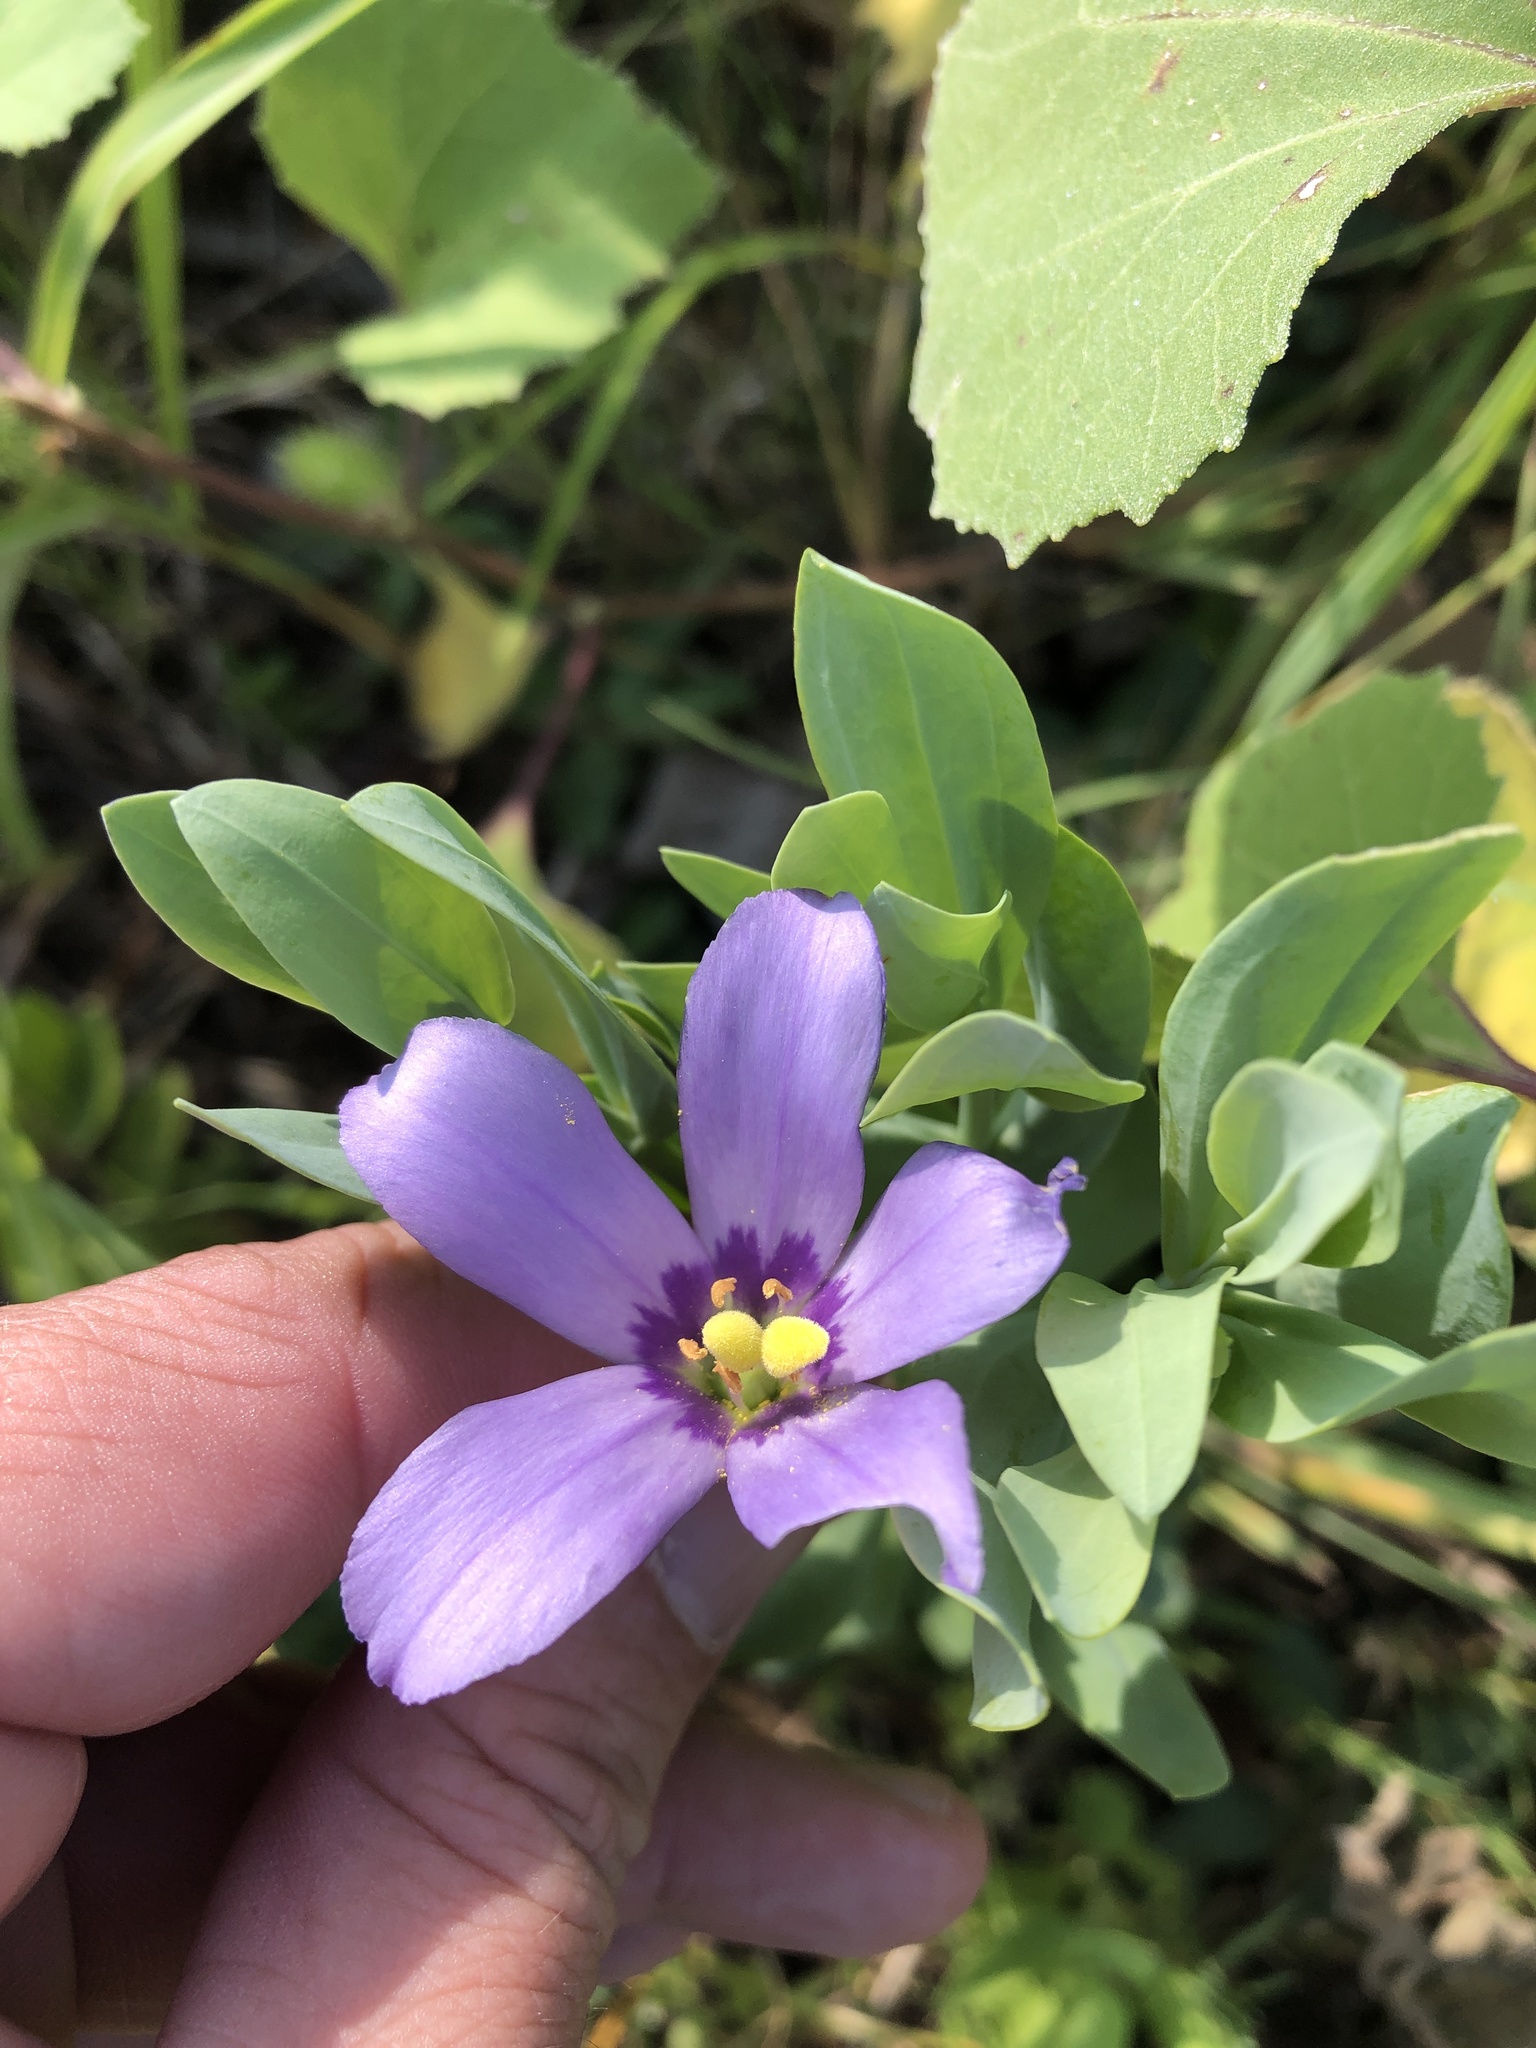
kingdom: Plantae
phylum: Tracheophyta
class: Magnoliopsida
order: Gentianales
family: Gentianaceae
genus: Eustoma
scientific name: Eustoma russellianum
